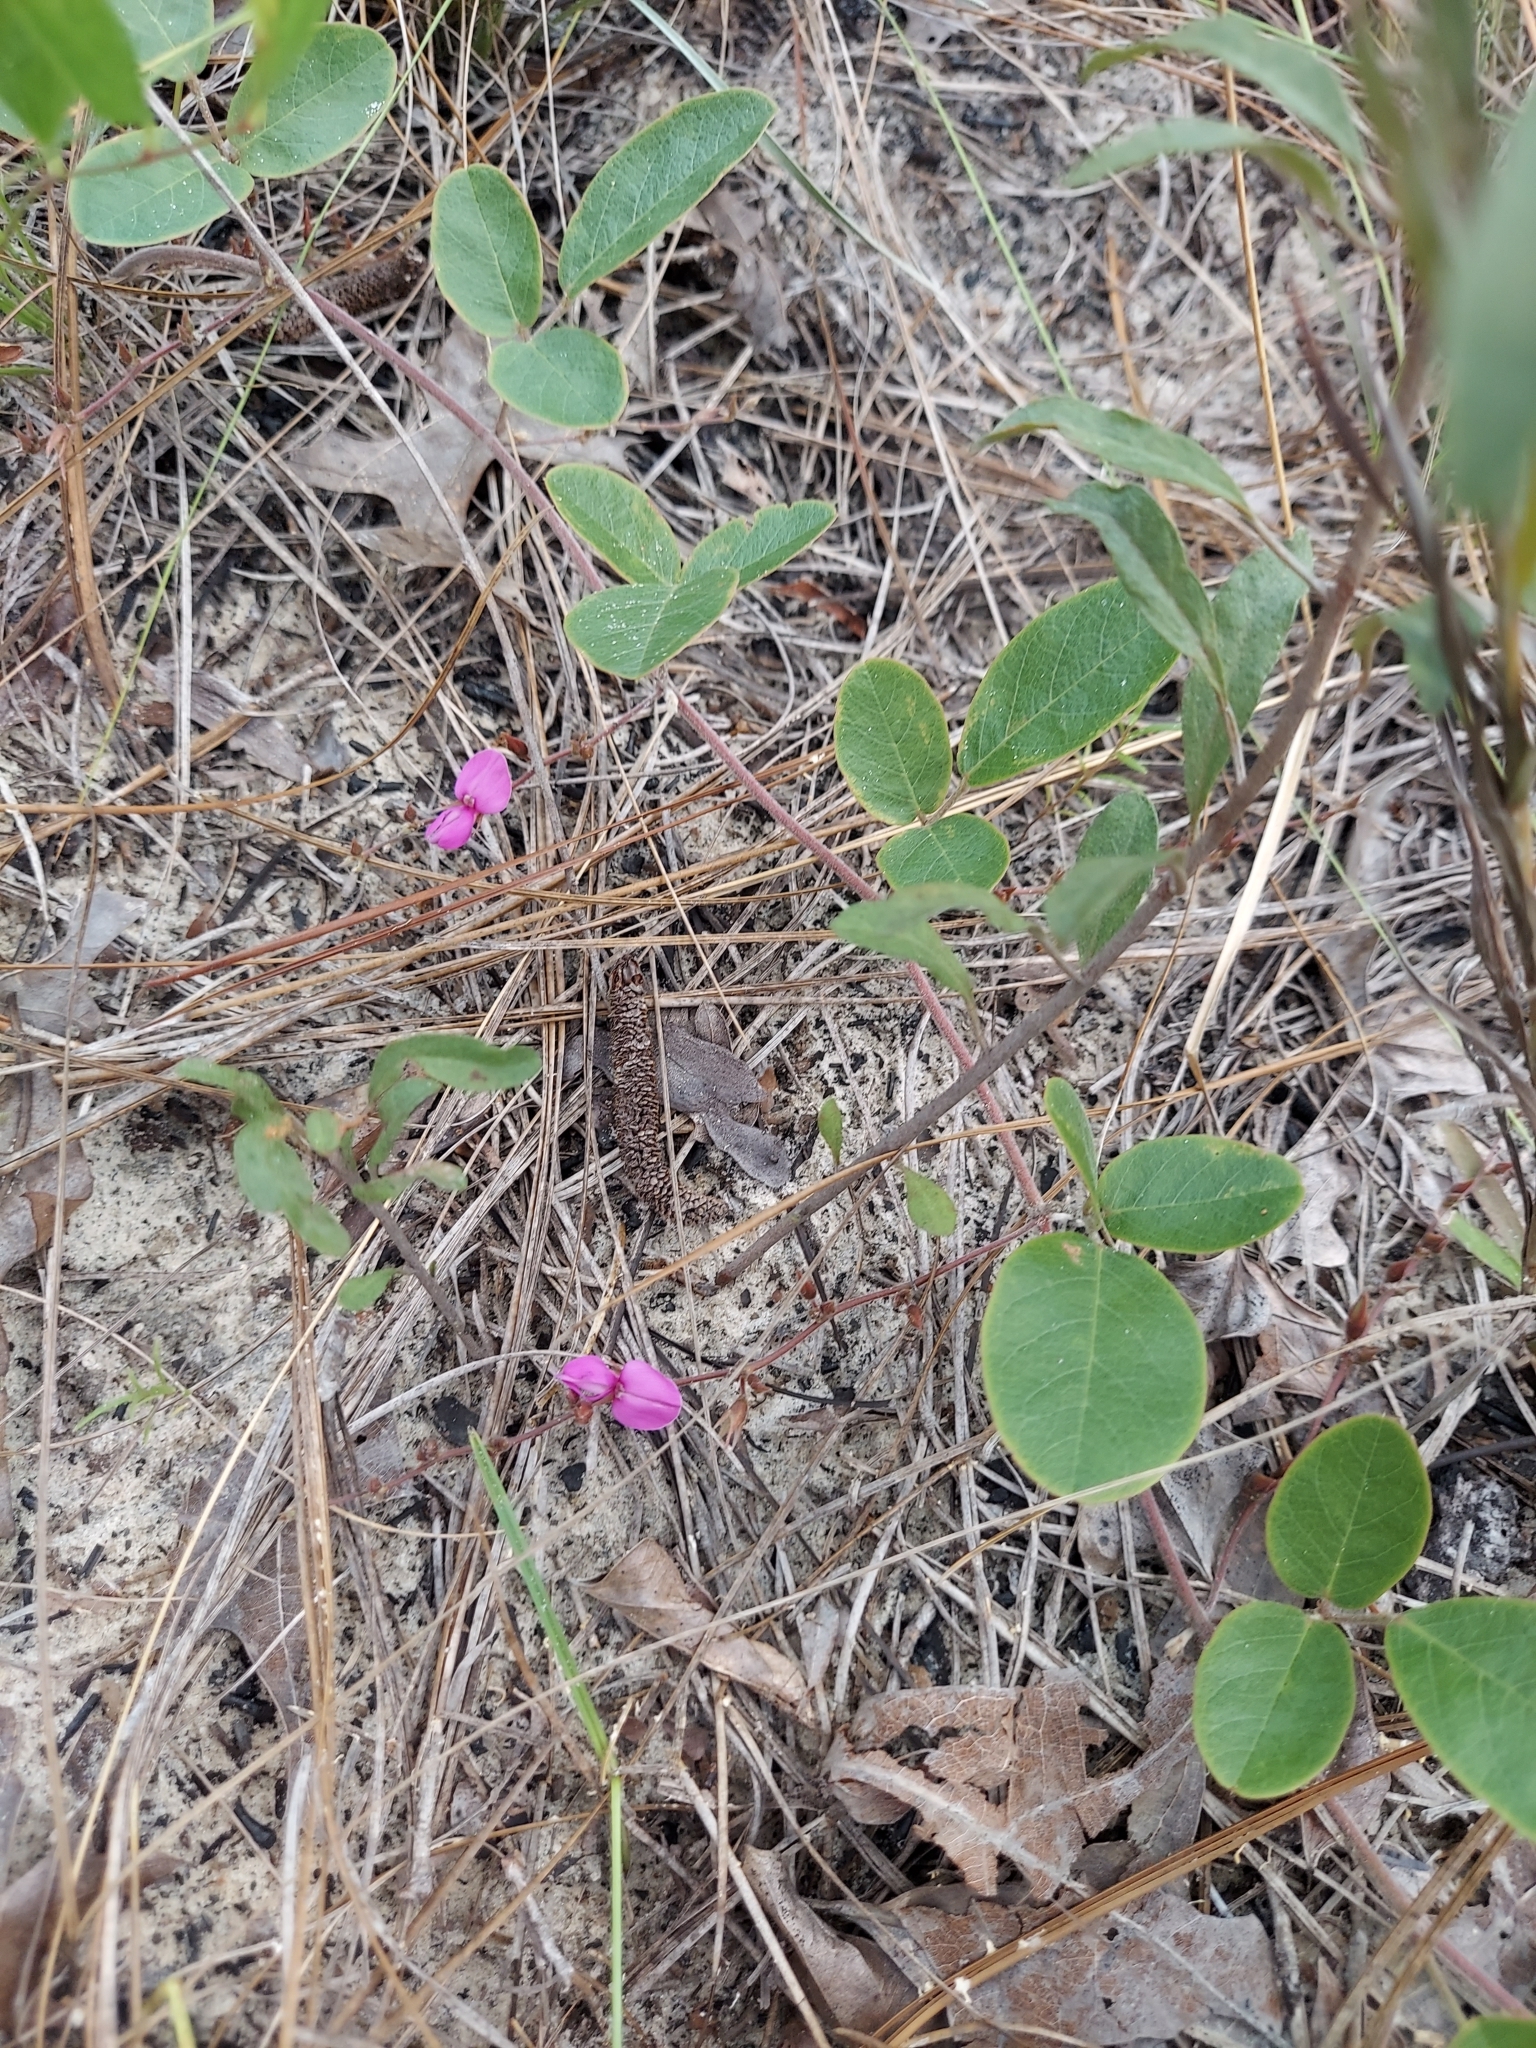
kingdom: Plantae
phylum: Tracheophyta
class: Magnoliopsida
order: Fabales
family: Fabaceae
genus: Galactia
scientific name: Galactia floridana
